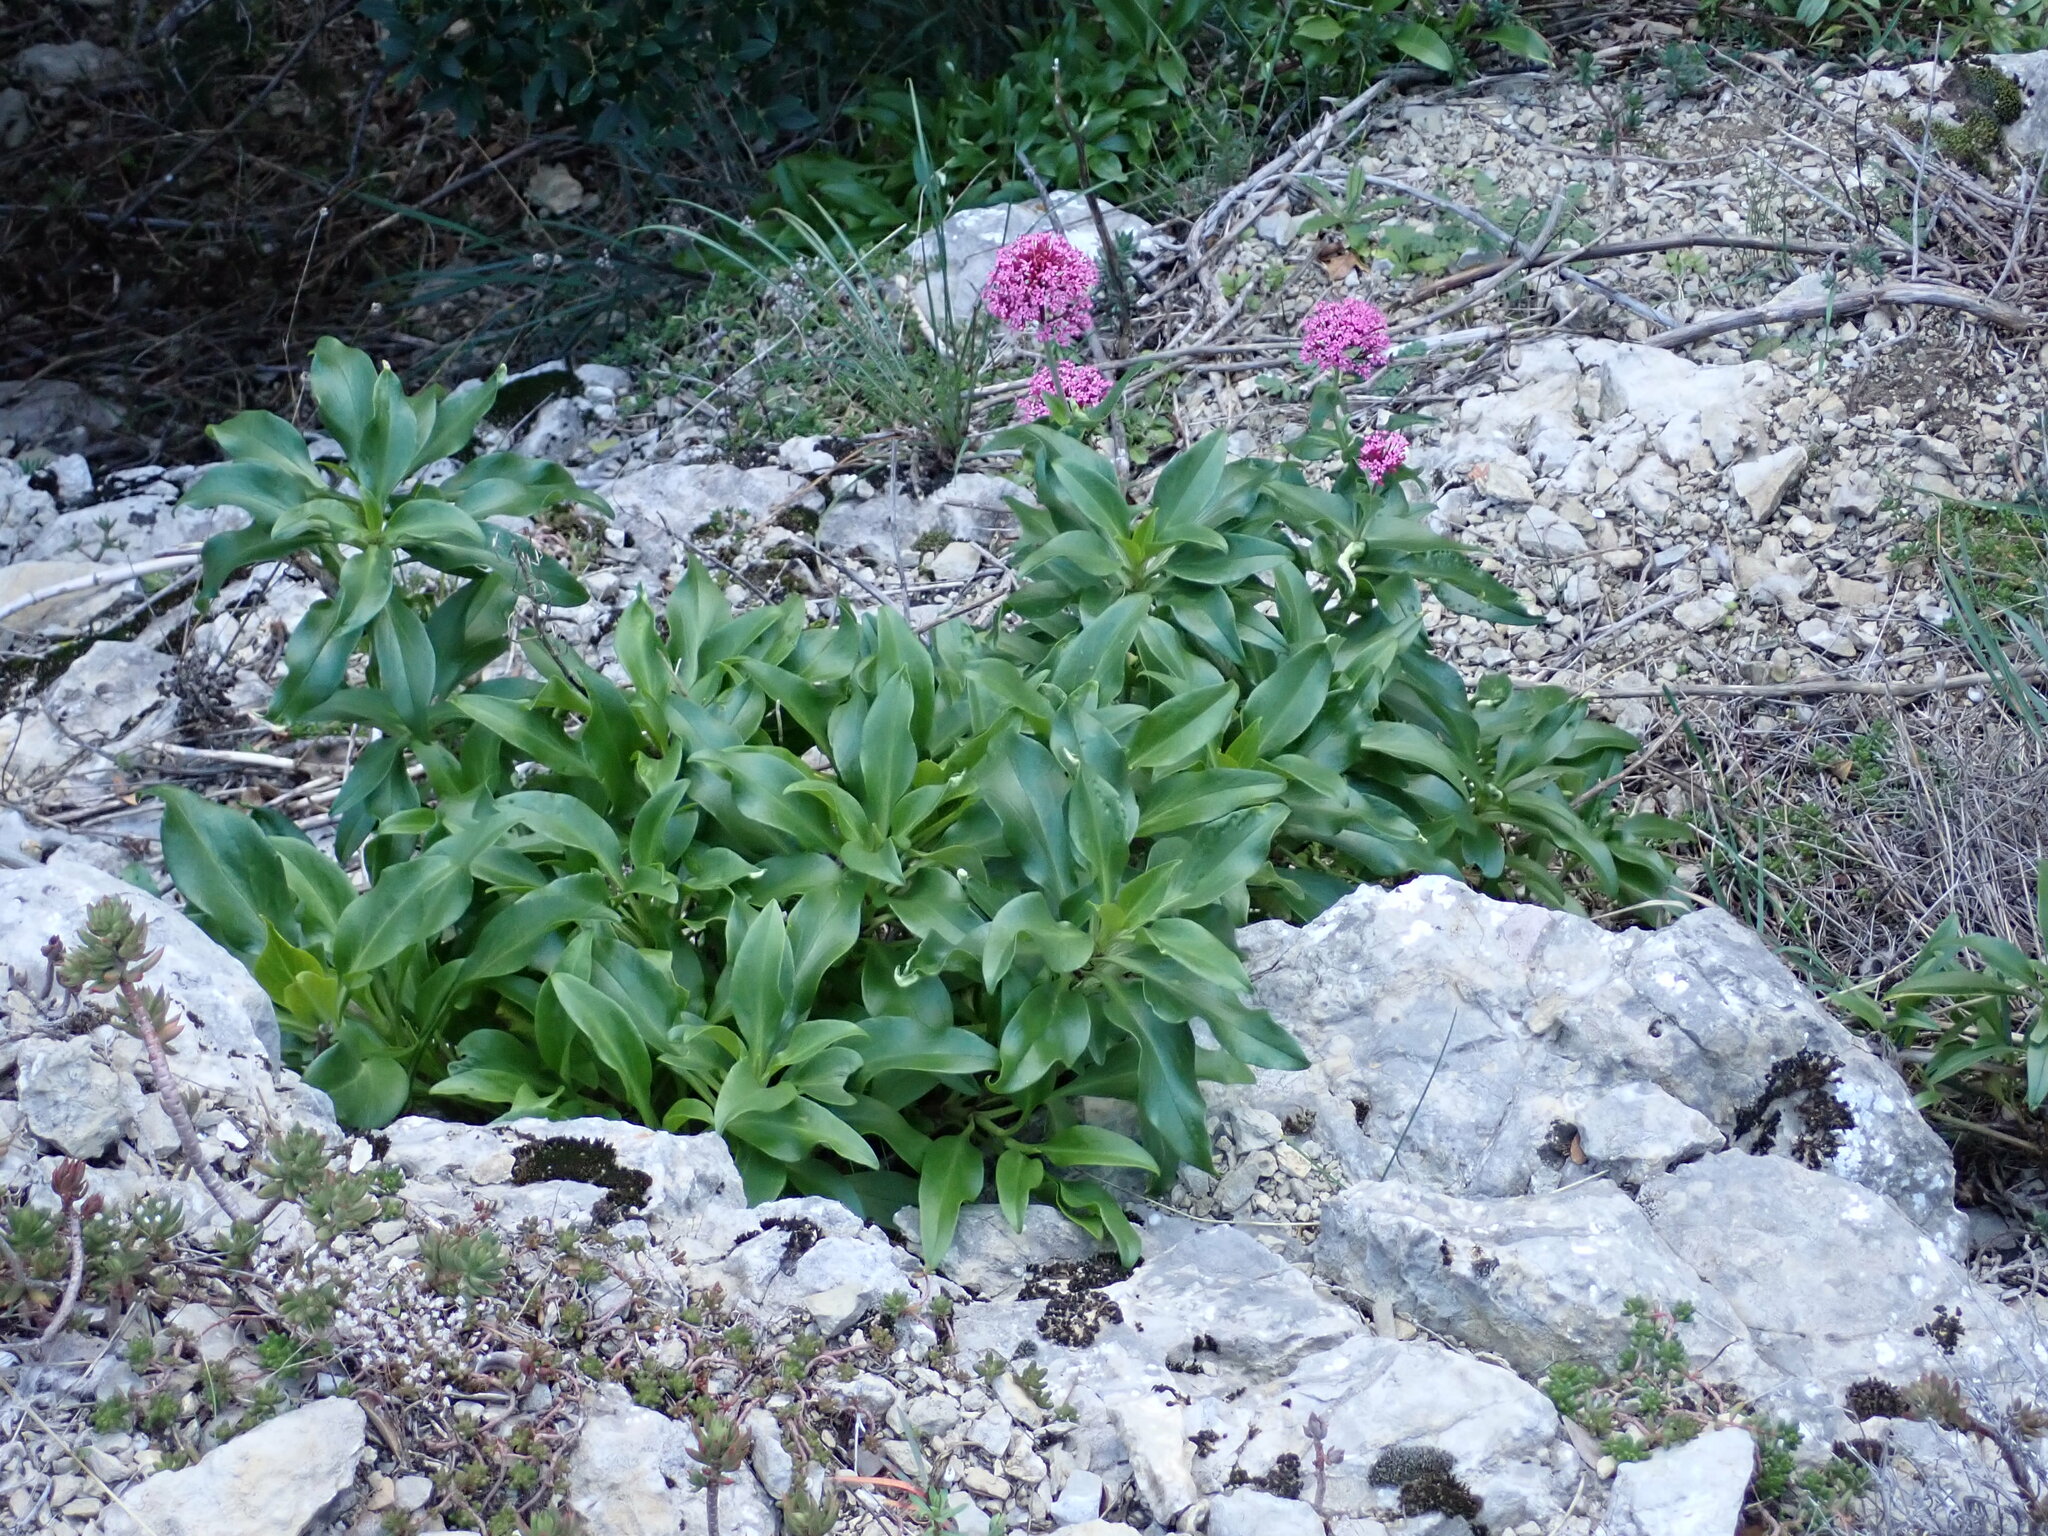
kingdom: Plantae
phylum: Tracheophyta
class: Magnoliopsida
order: Dipsacales
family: Caprifoliaceae
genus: Centranthus
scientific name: Centranthus ruber
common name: Red valerian
